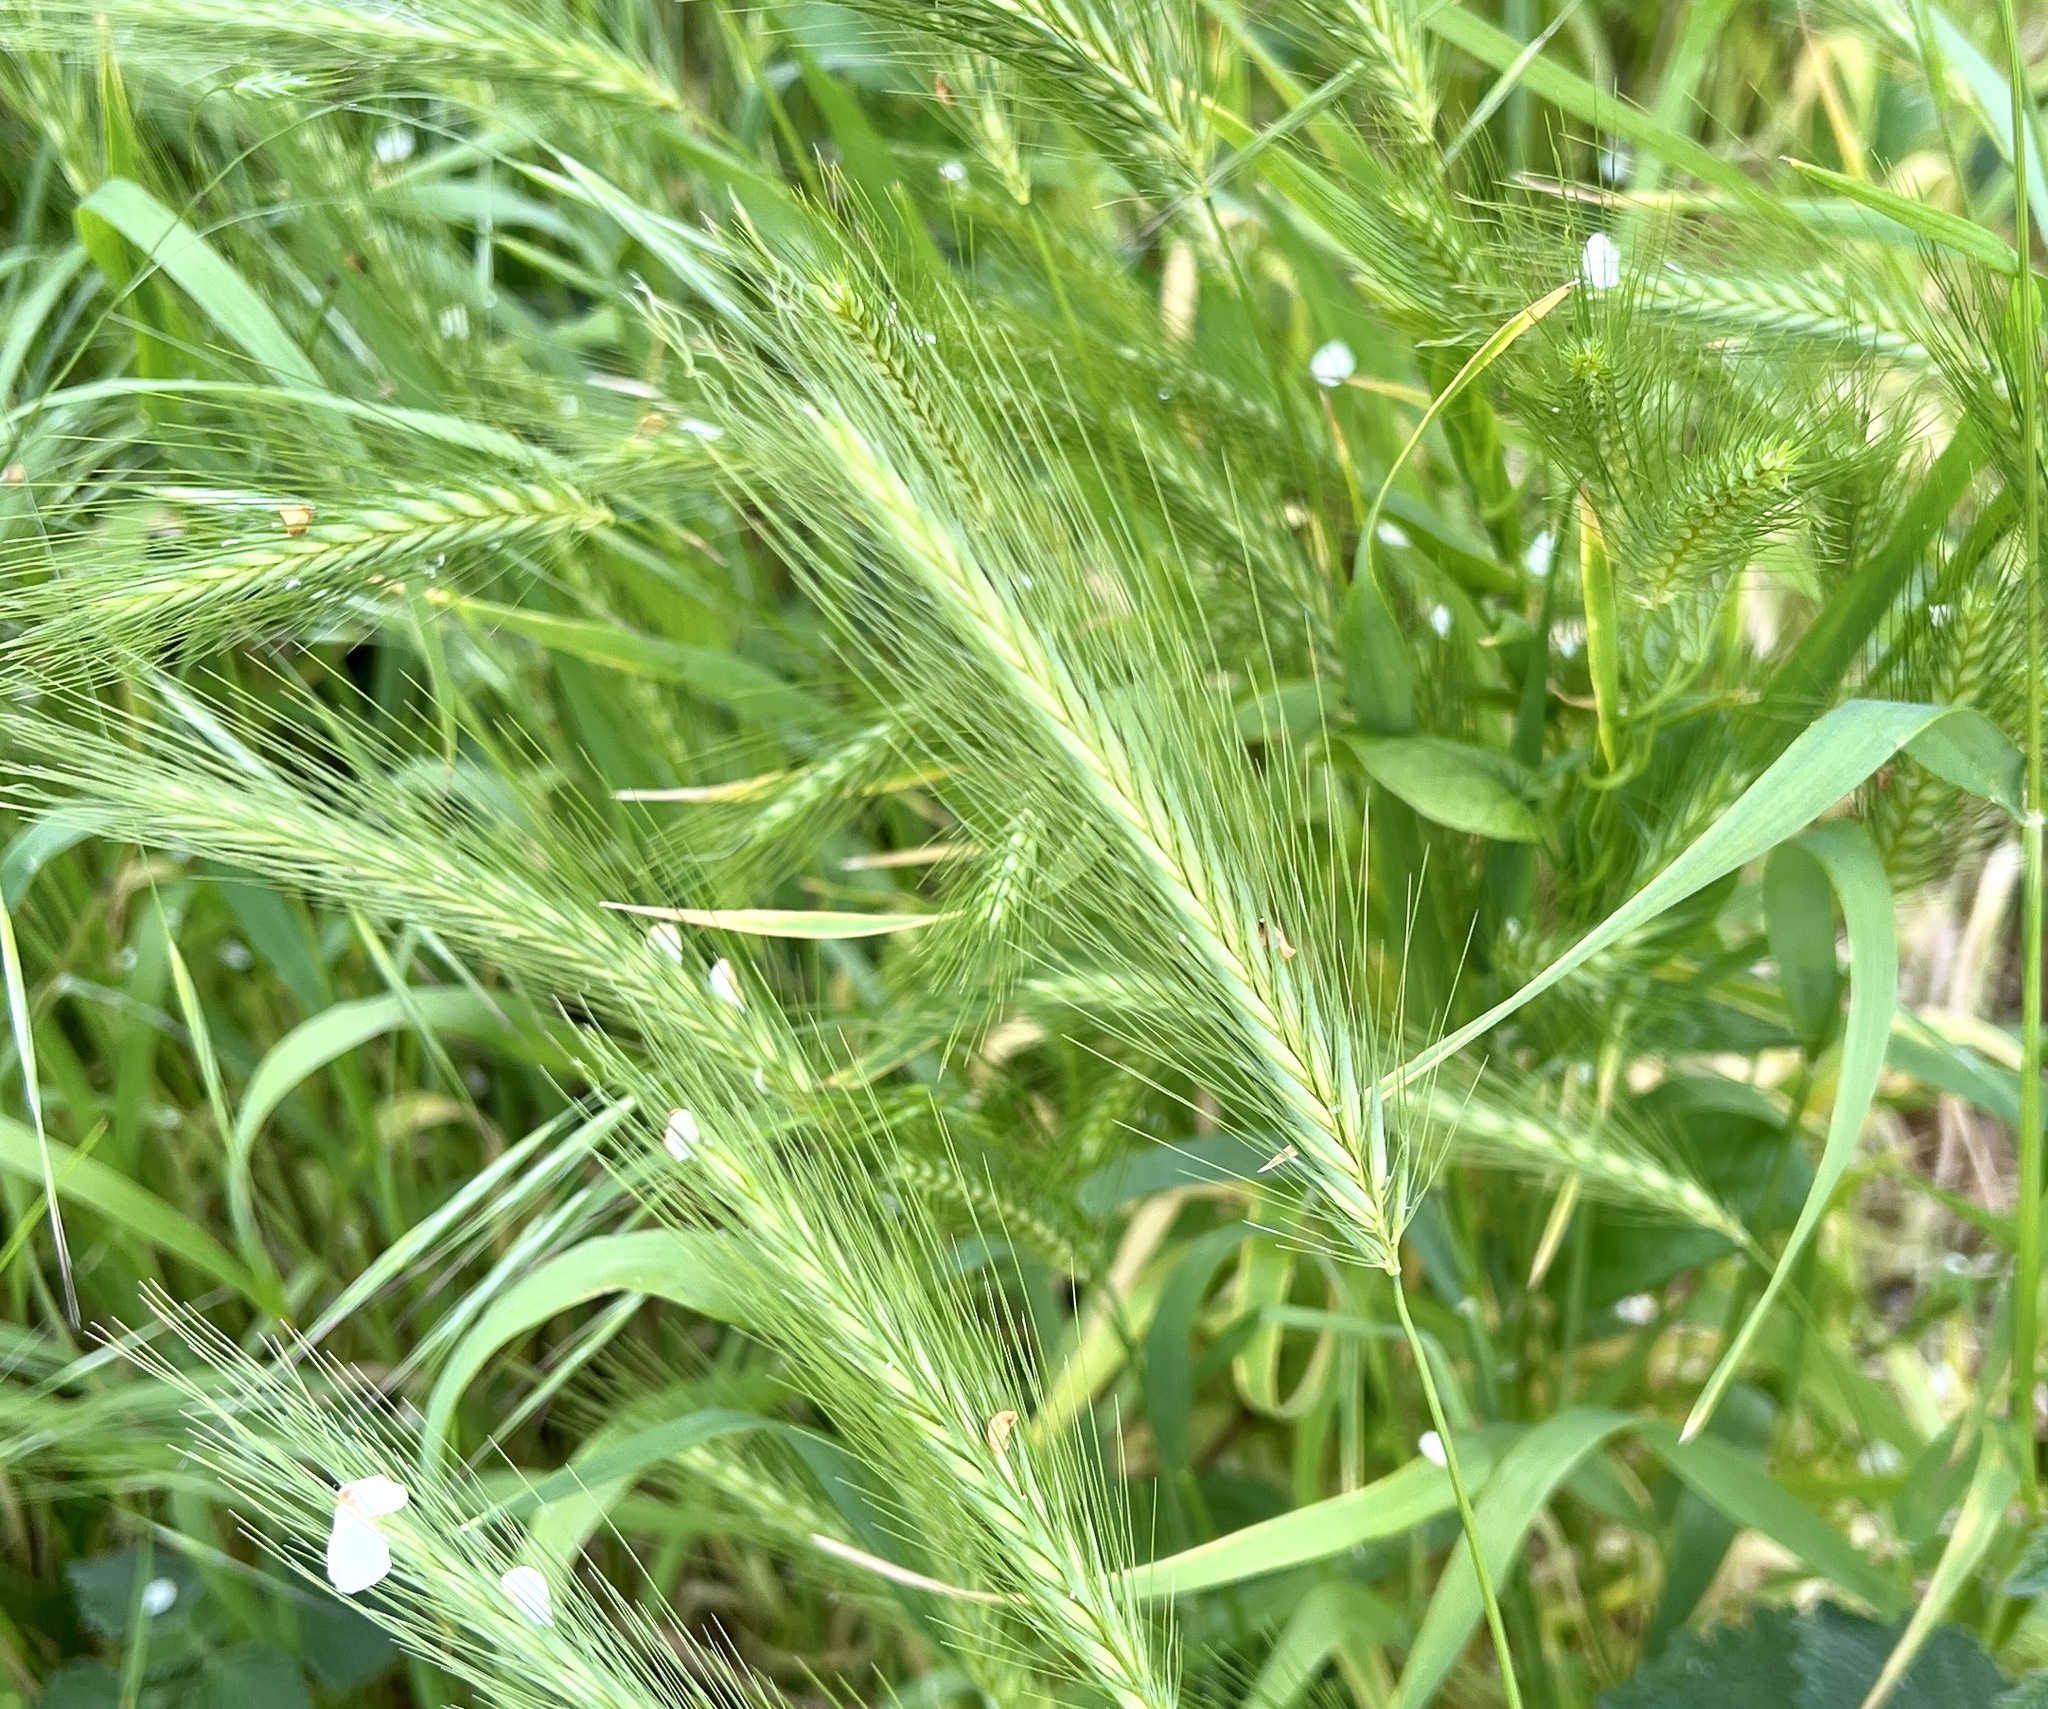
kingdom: Plantae
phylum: Tracheophyta
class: Liliopsida
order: Poales
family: Poaceae
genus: Hordeum
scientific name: Hordeum murinum
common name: Wall barley
